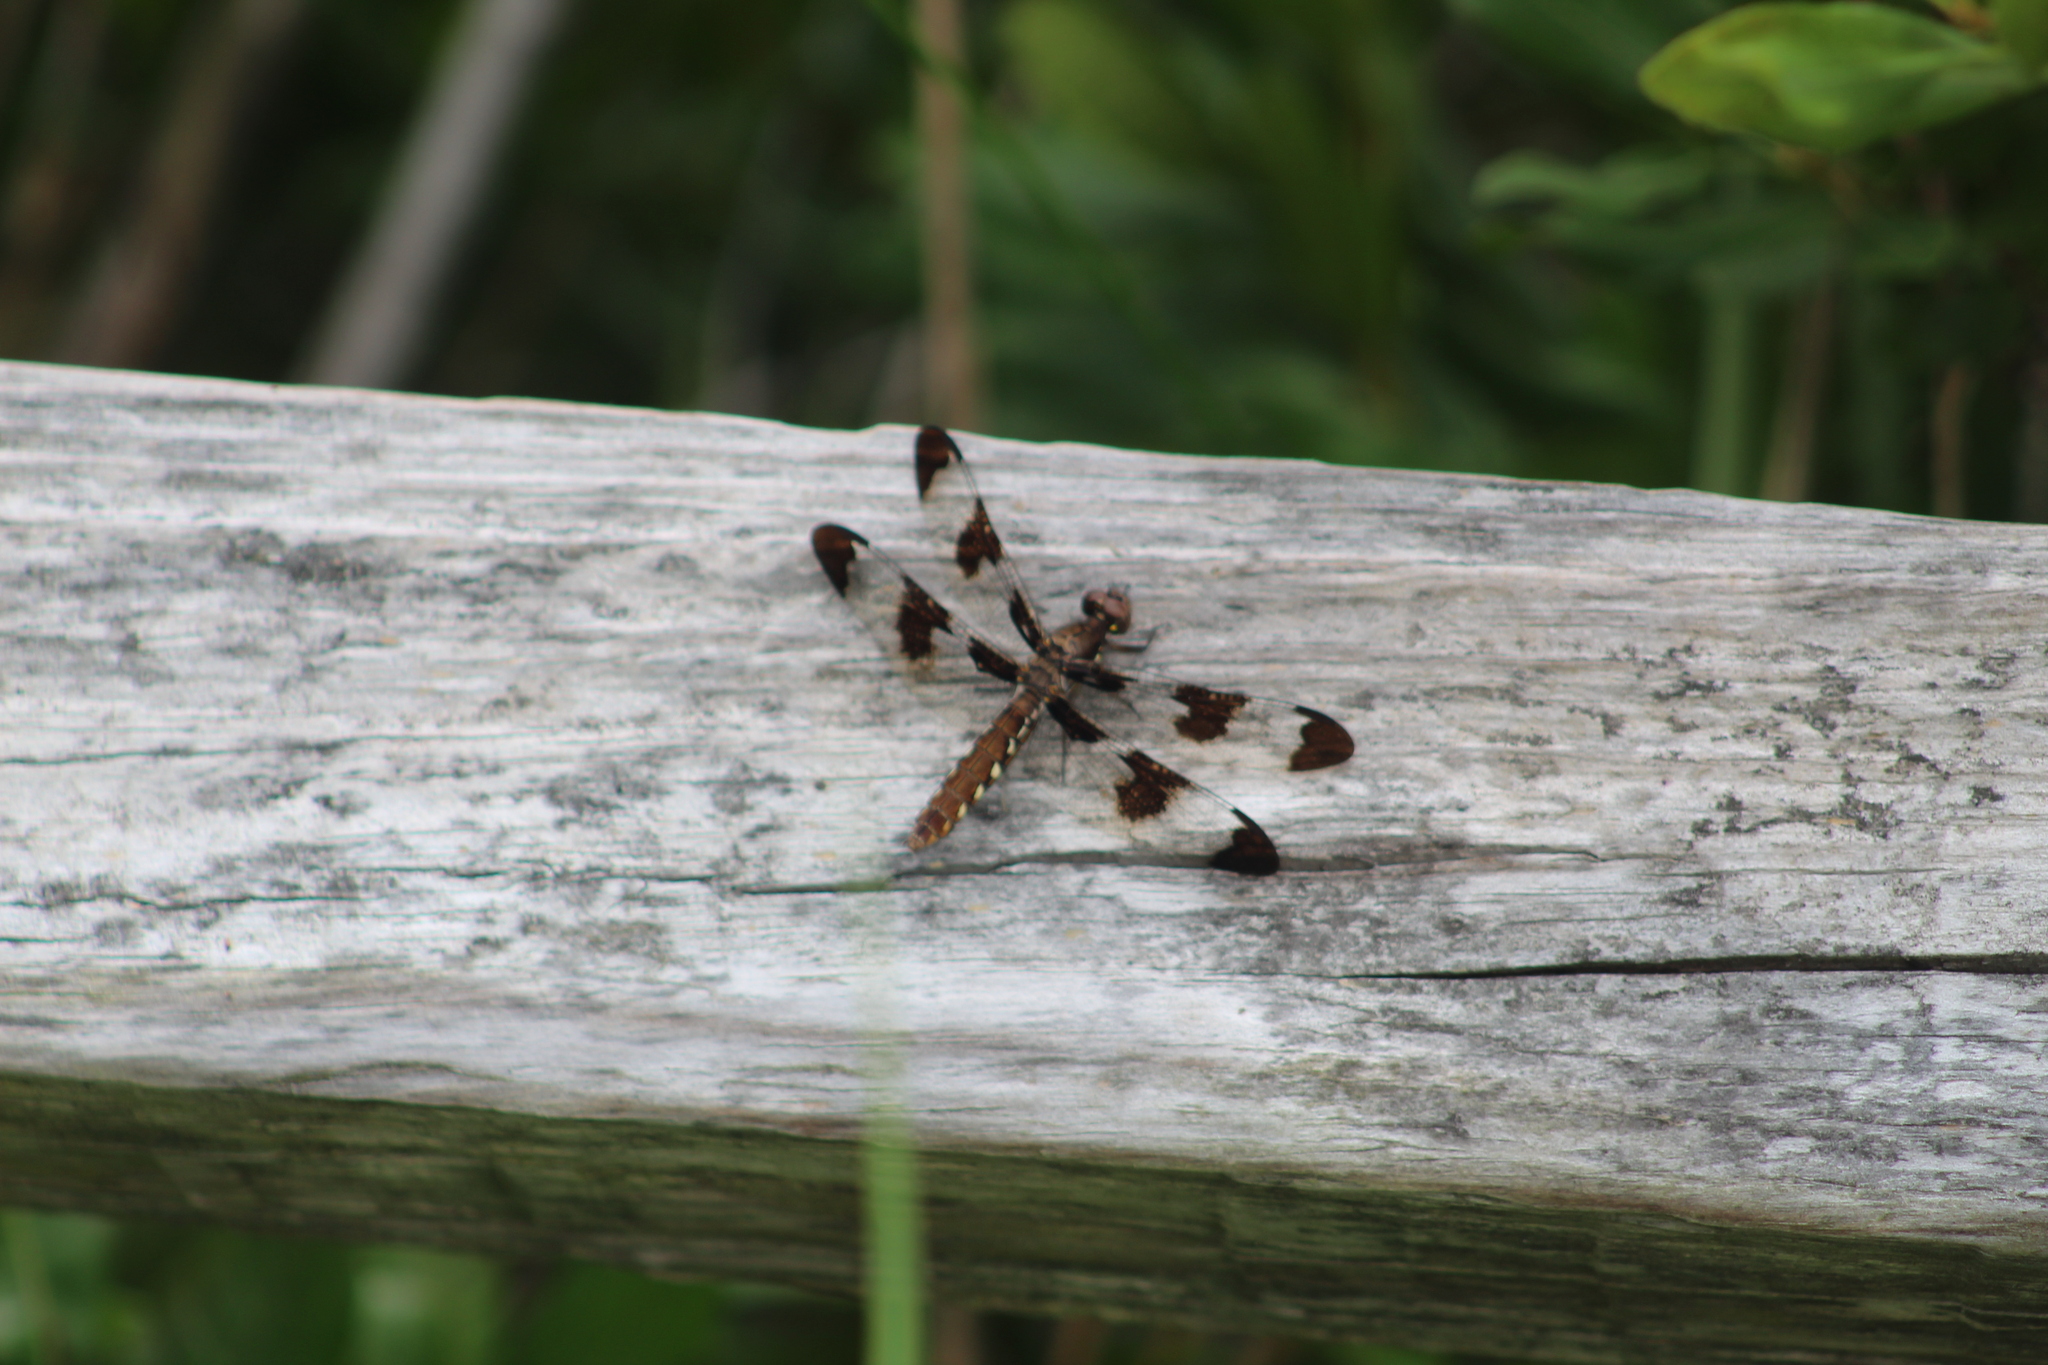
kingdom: Animalia
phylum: Arthropoda
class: Insecta
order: Odonata
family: Libellulidae
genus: Plathemis
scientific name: Plathemis lydia
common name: Common whitetail
